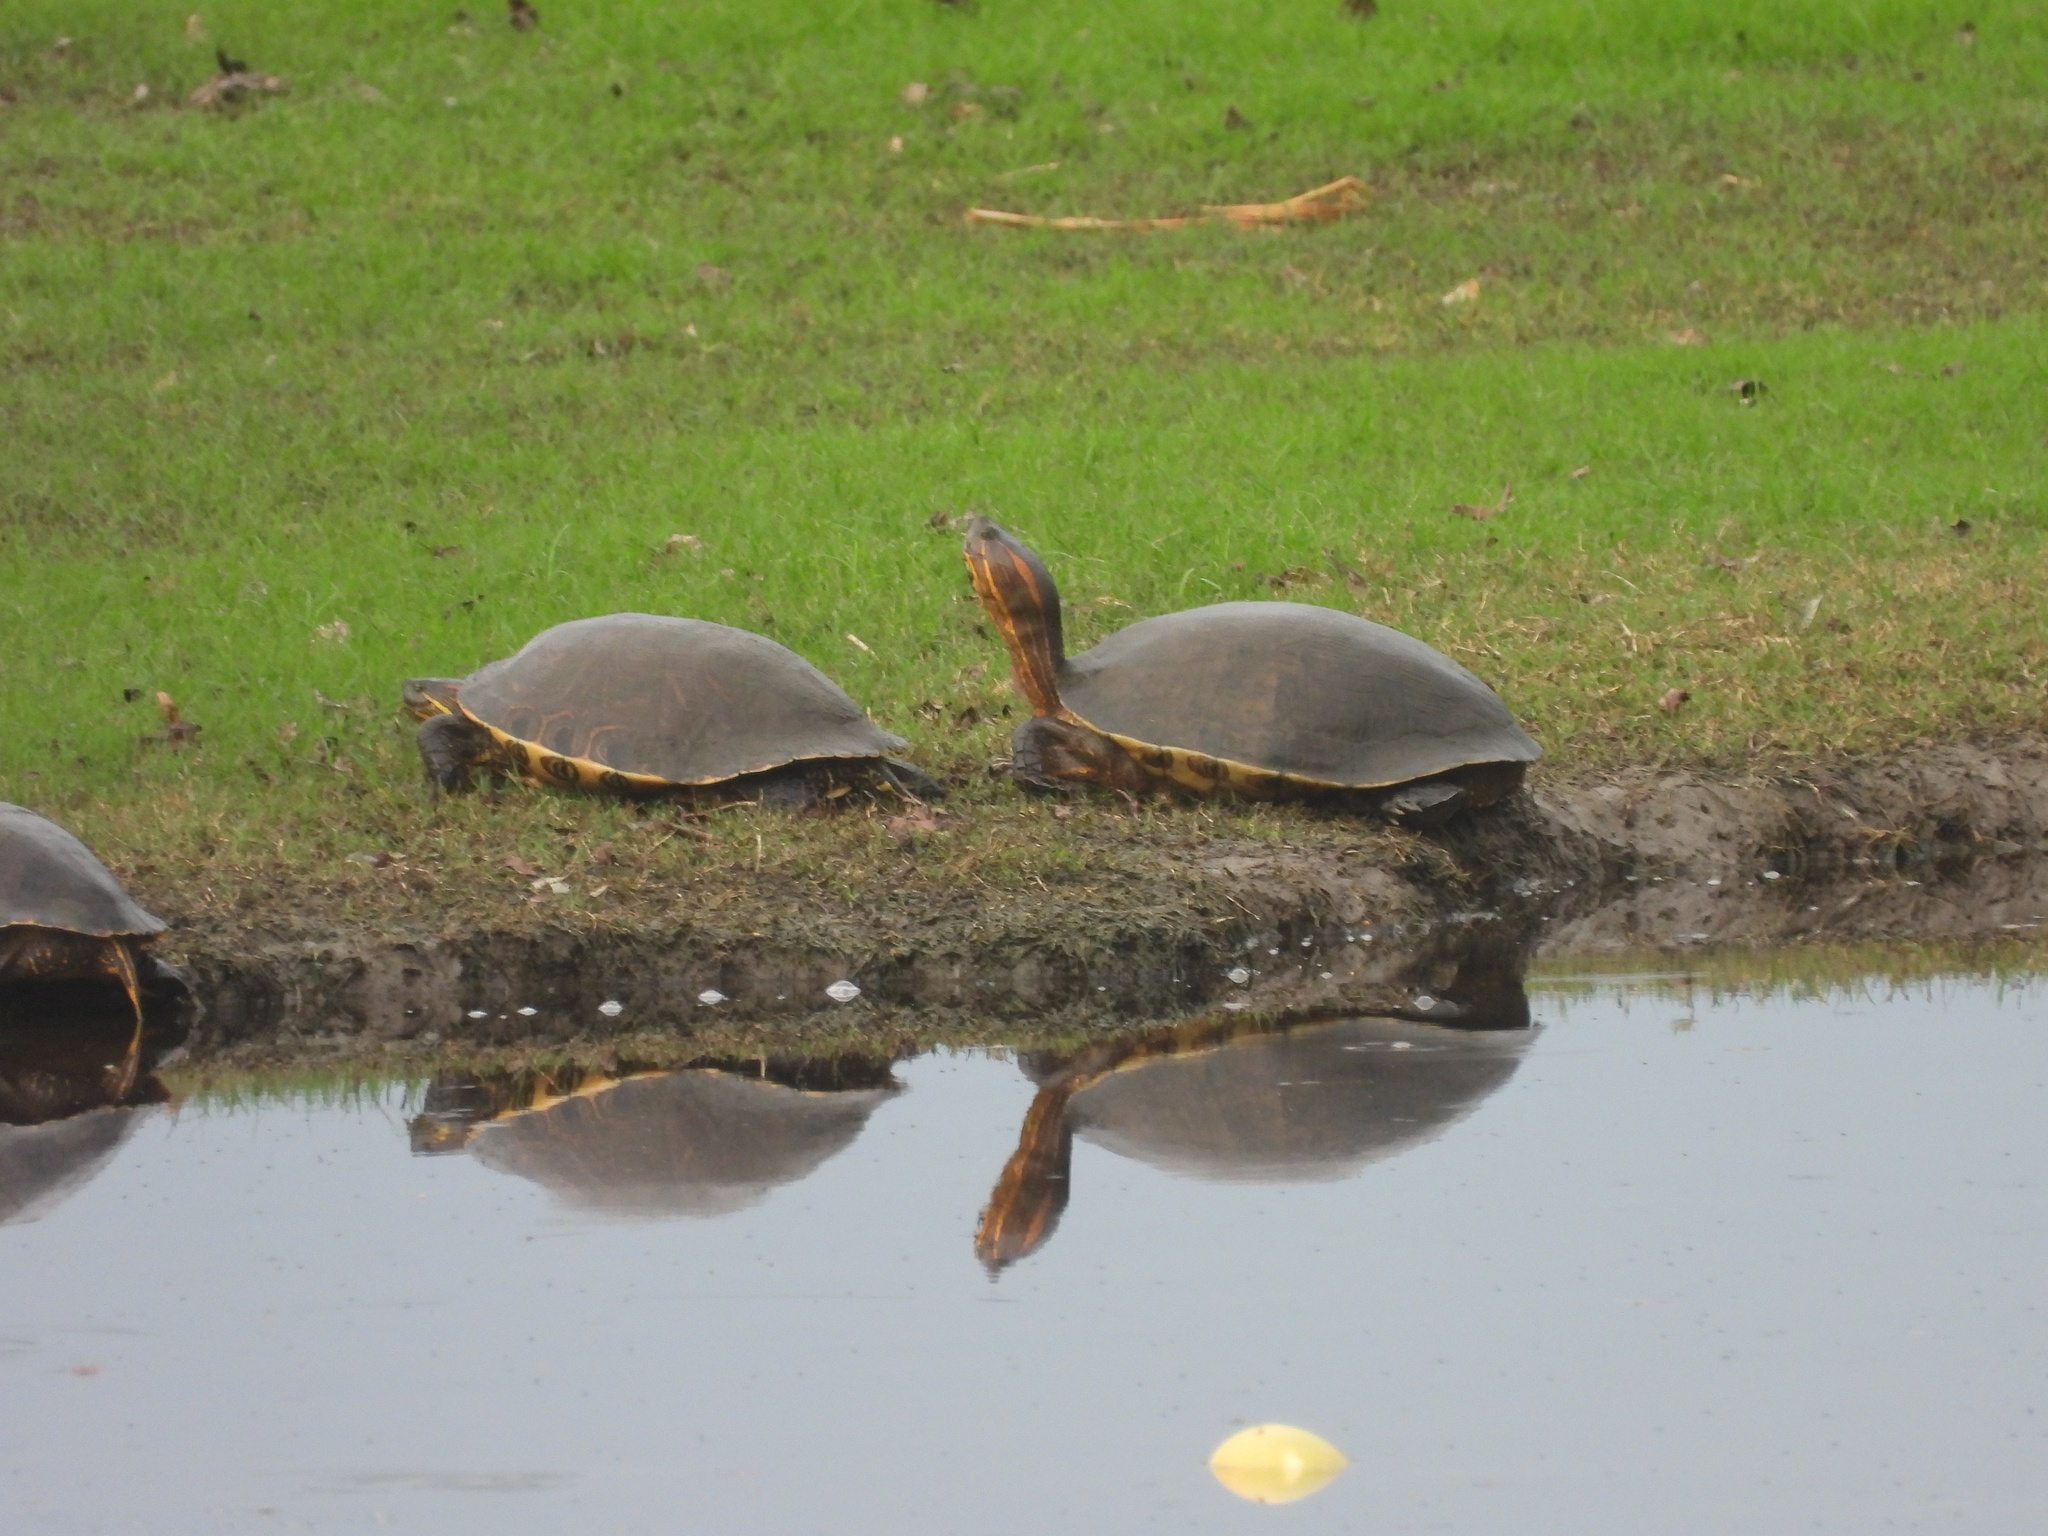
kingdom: Animalia
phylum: Chordata
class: Testudines
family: Emydidae
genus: Trachemys
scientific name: Trachemys ornata
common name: Ornate slider
